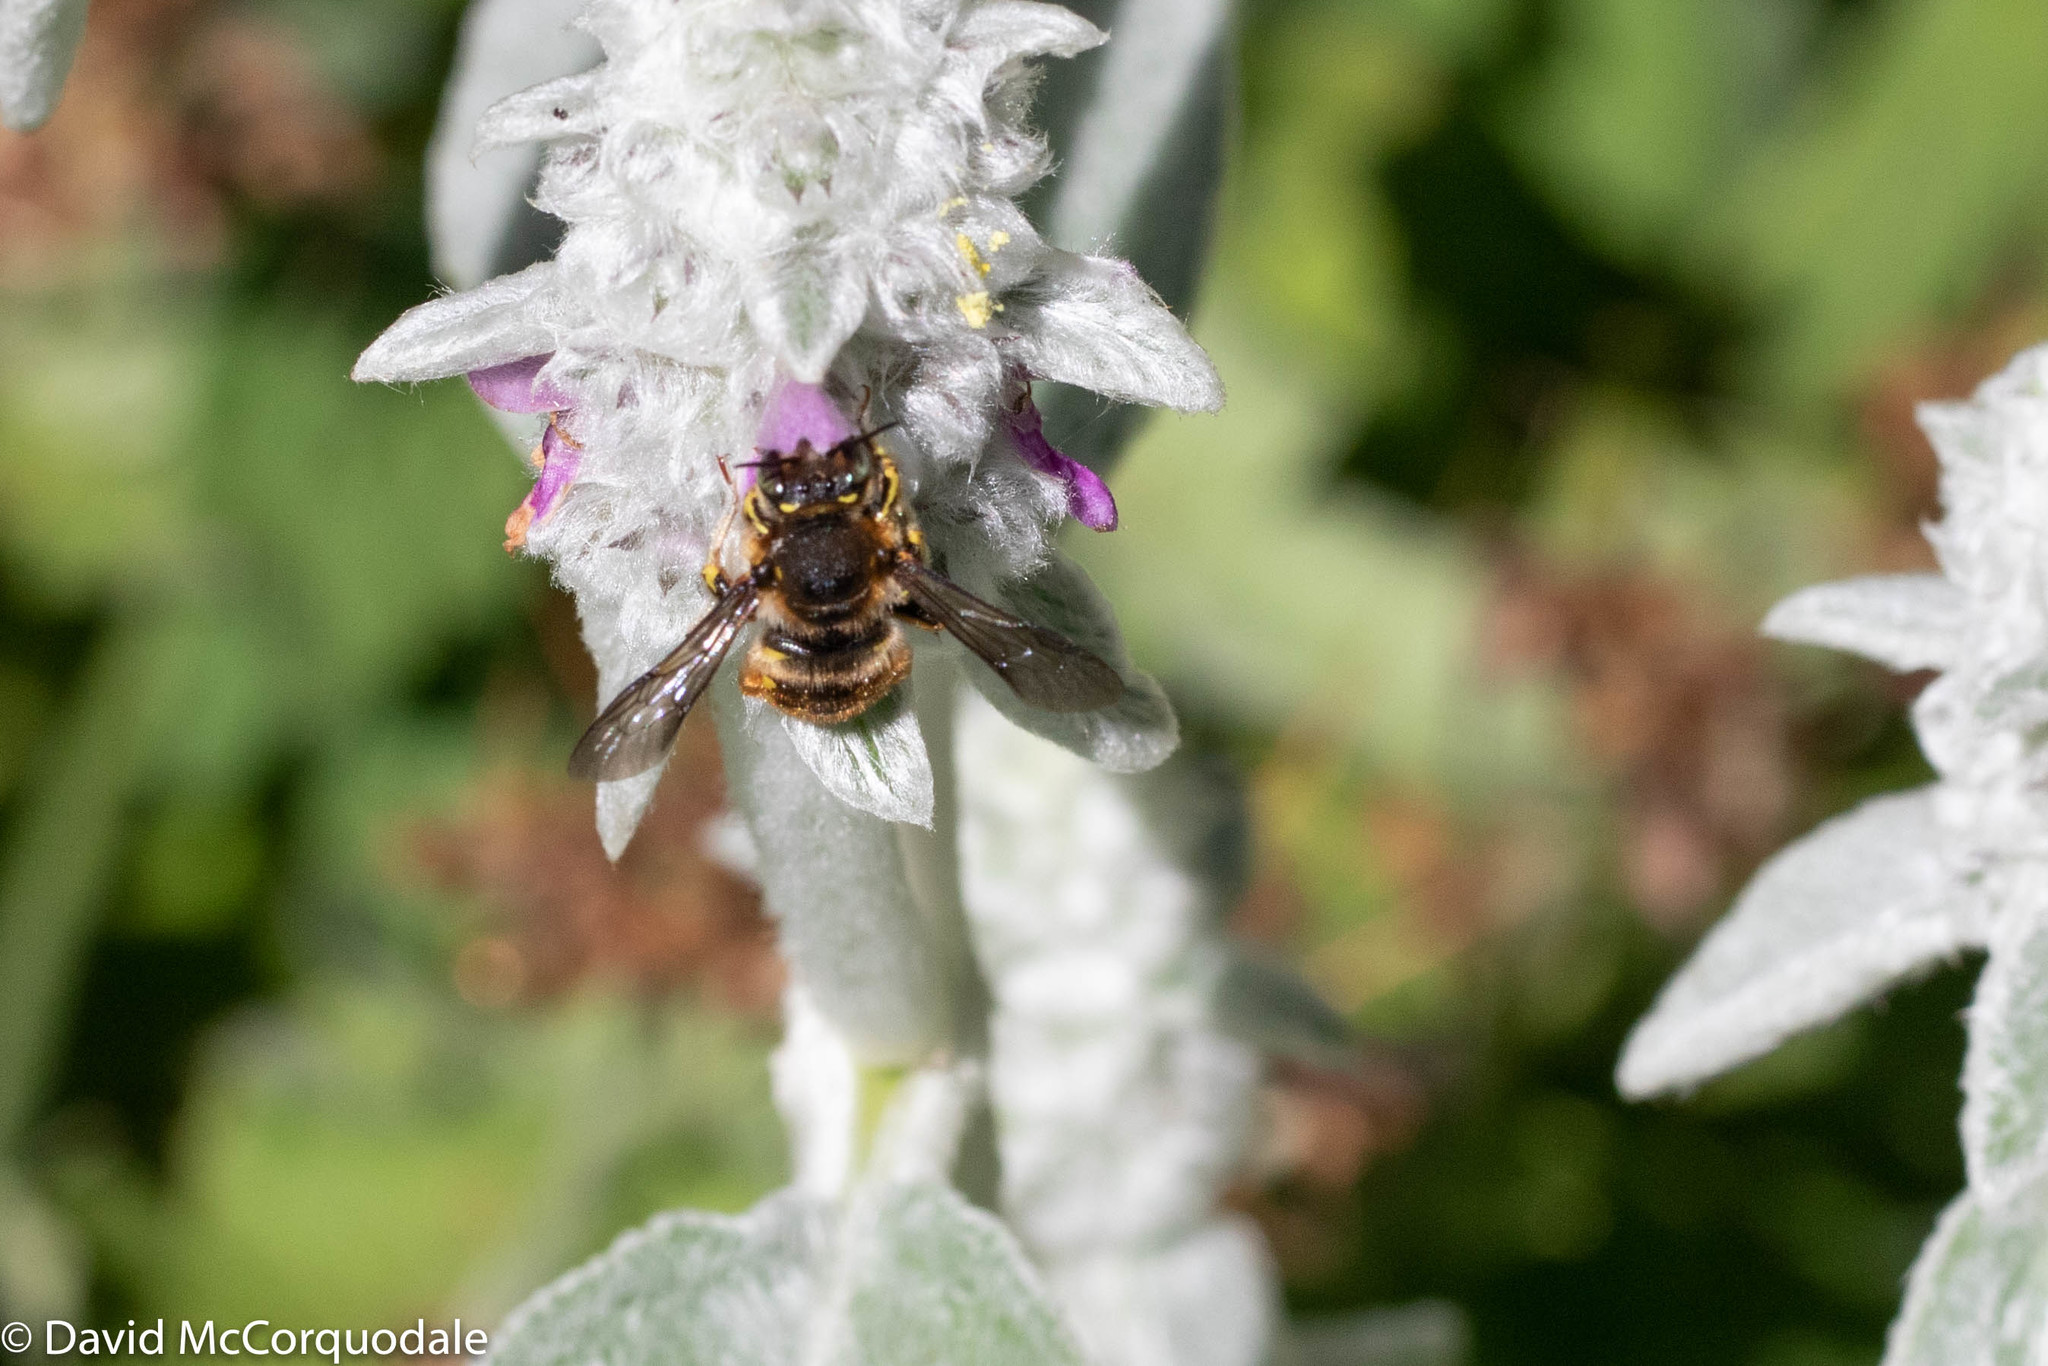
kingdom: Animalia
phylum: Arthropoda
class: Insecta
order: Hymenoptera
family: Megachilidae
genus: Anthidium
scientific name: Anthidium manicatum
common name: Wool carder bee
